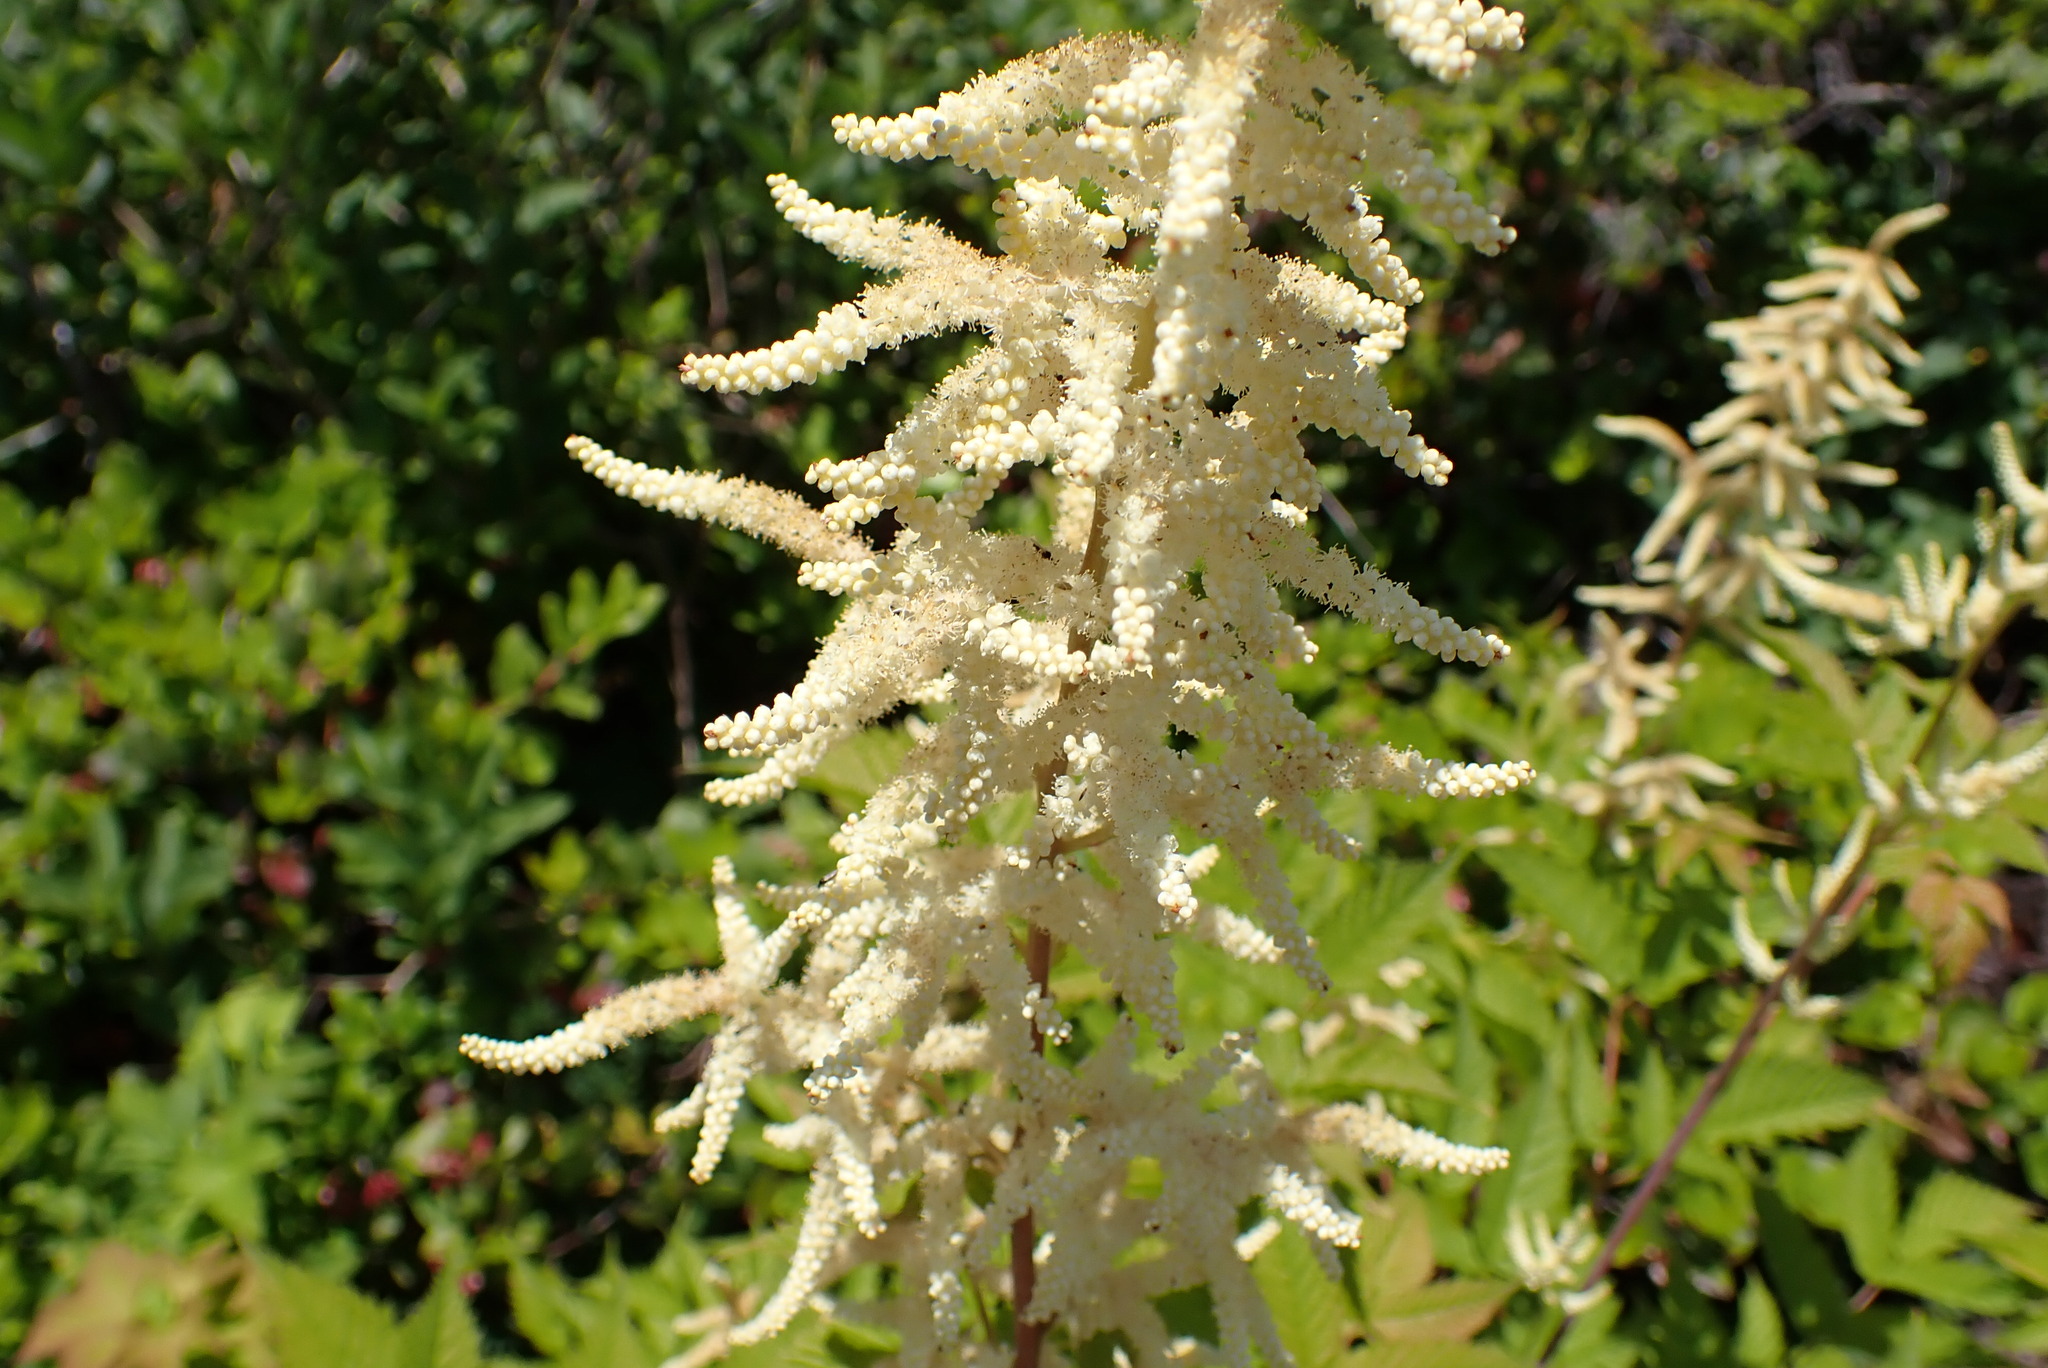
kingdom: Plantae
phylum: Tracheophyta
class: Magnoliopsida
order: Rosales
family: Rosaceae
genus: Aruncus
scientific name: Aruncus dioicus
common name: Buck's-beard
